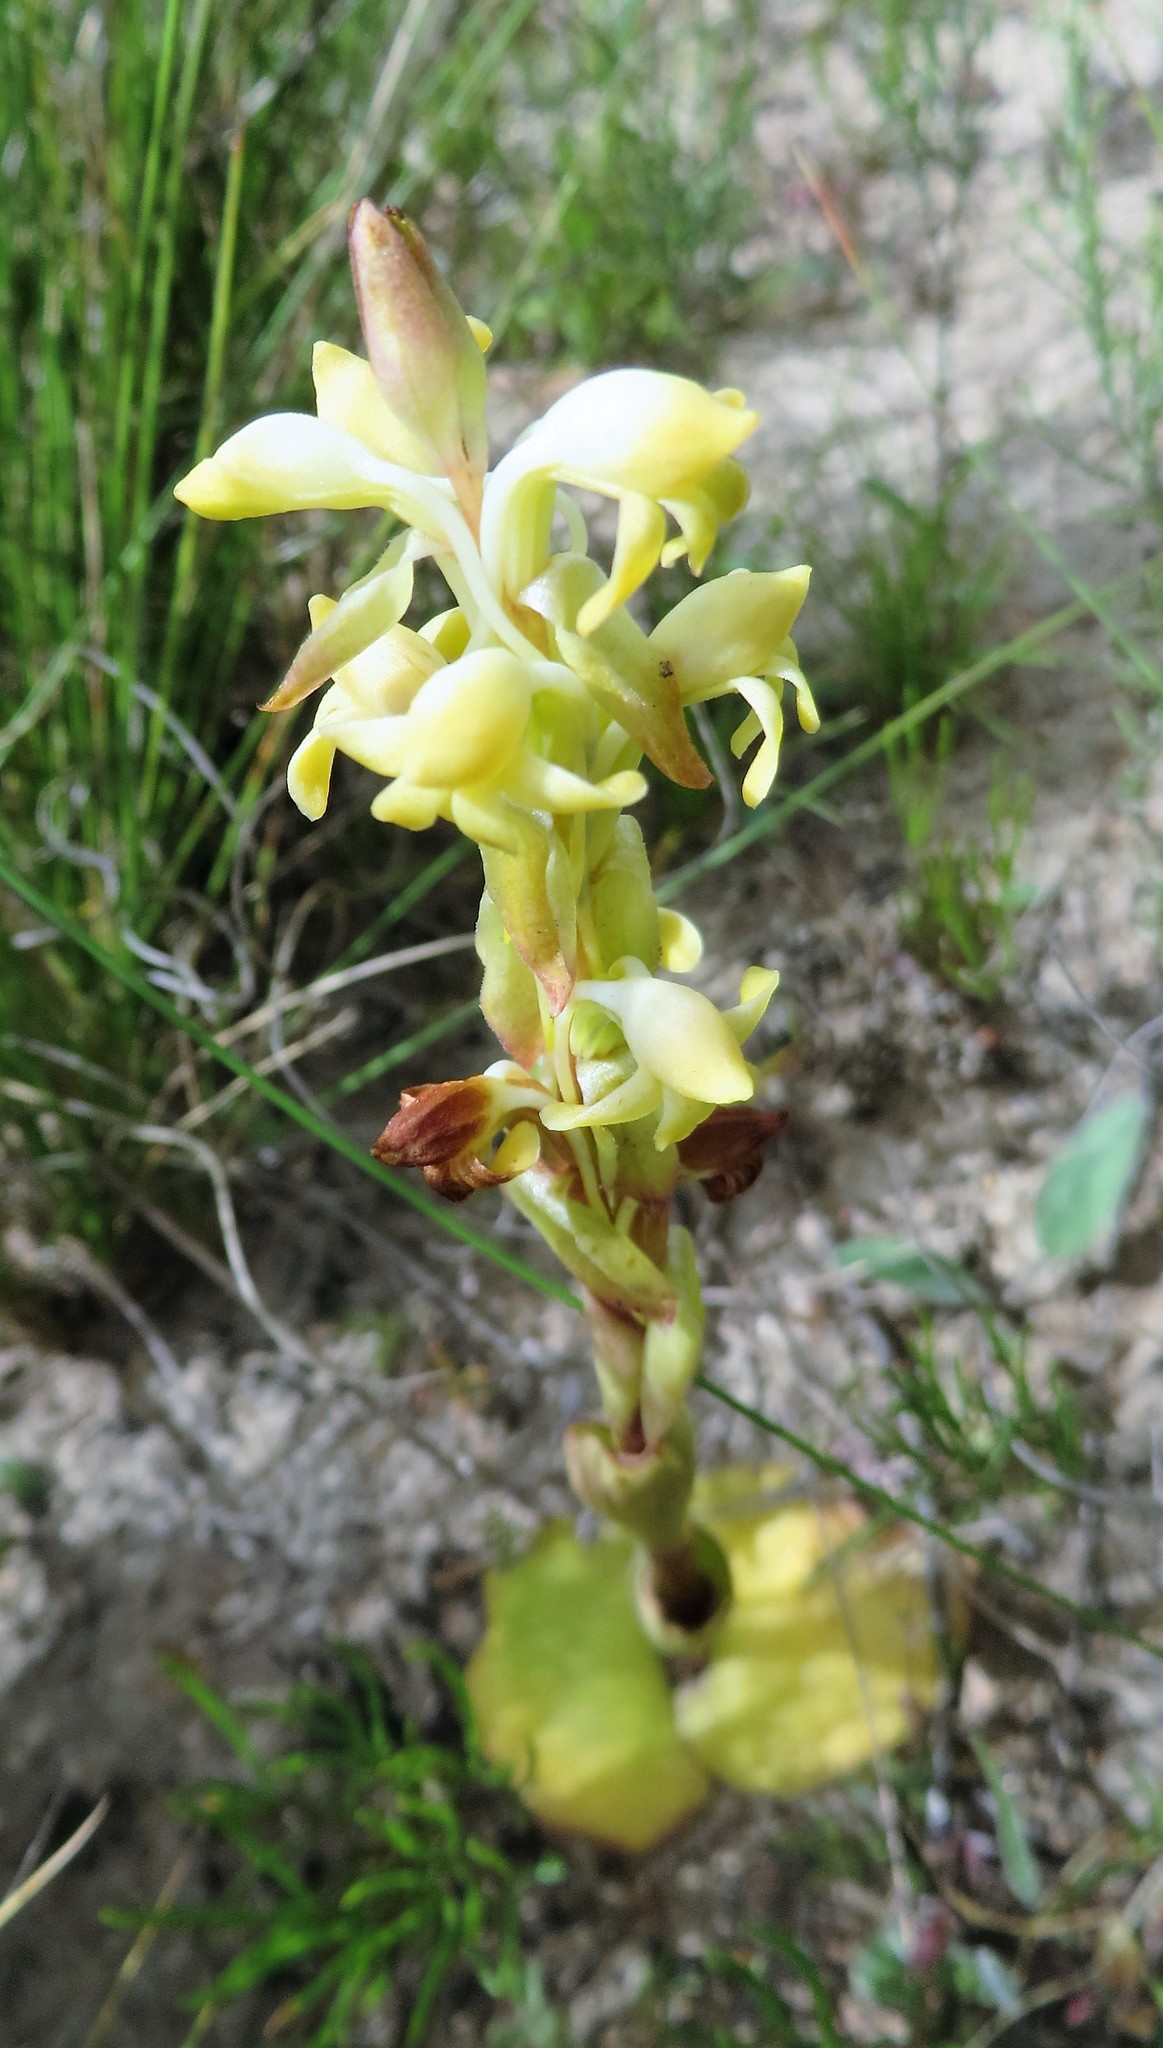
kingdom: Plantae
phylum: Tracheophyta
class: Liliopsida
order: Asparagales
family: Orchidaceae
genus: Satyrium
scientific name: Satyrium bicorne
